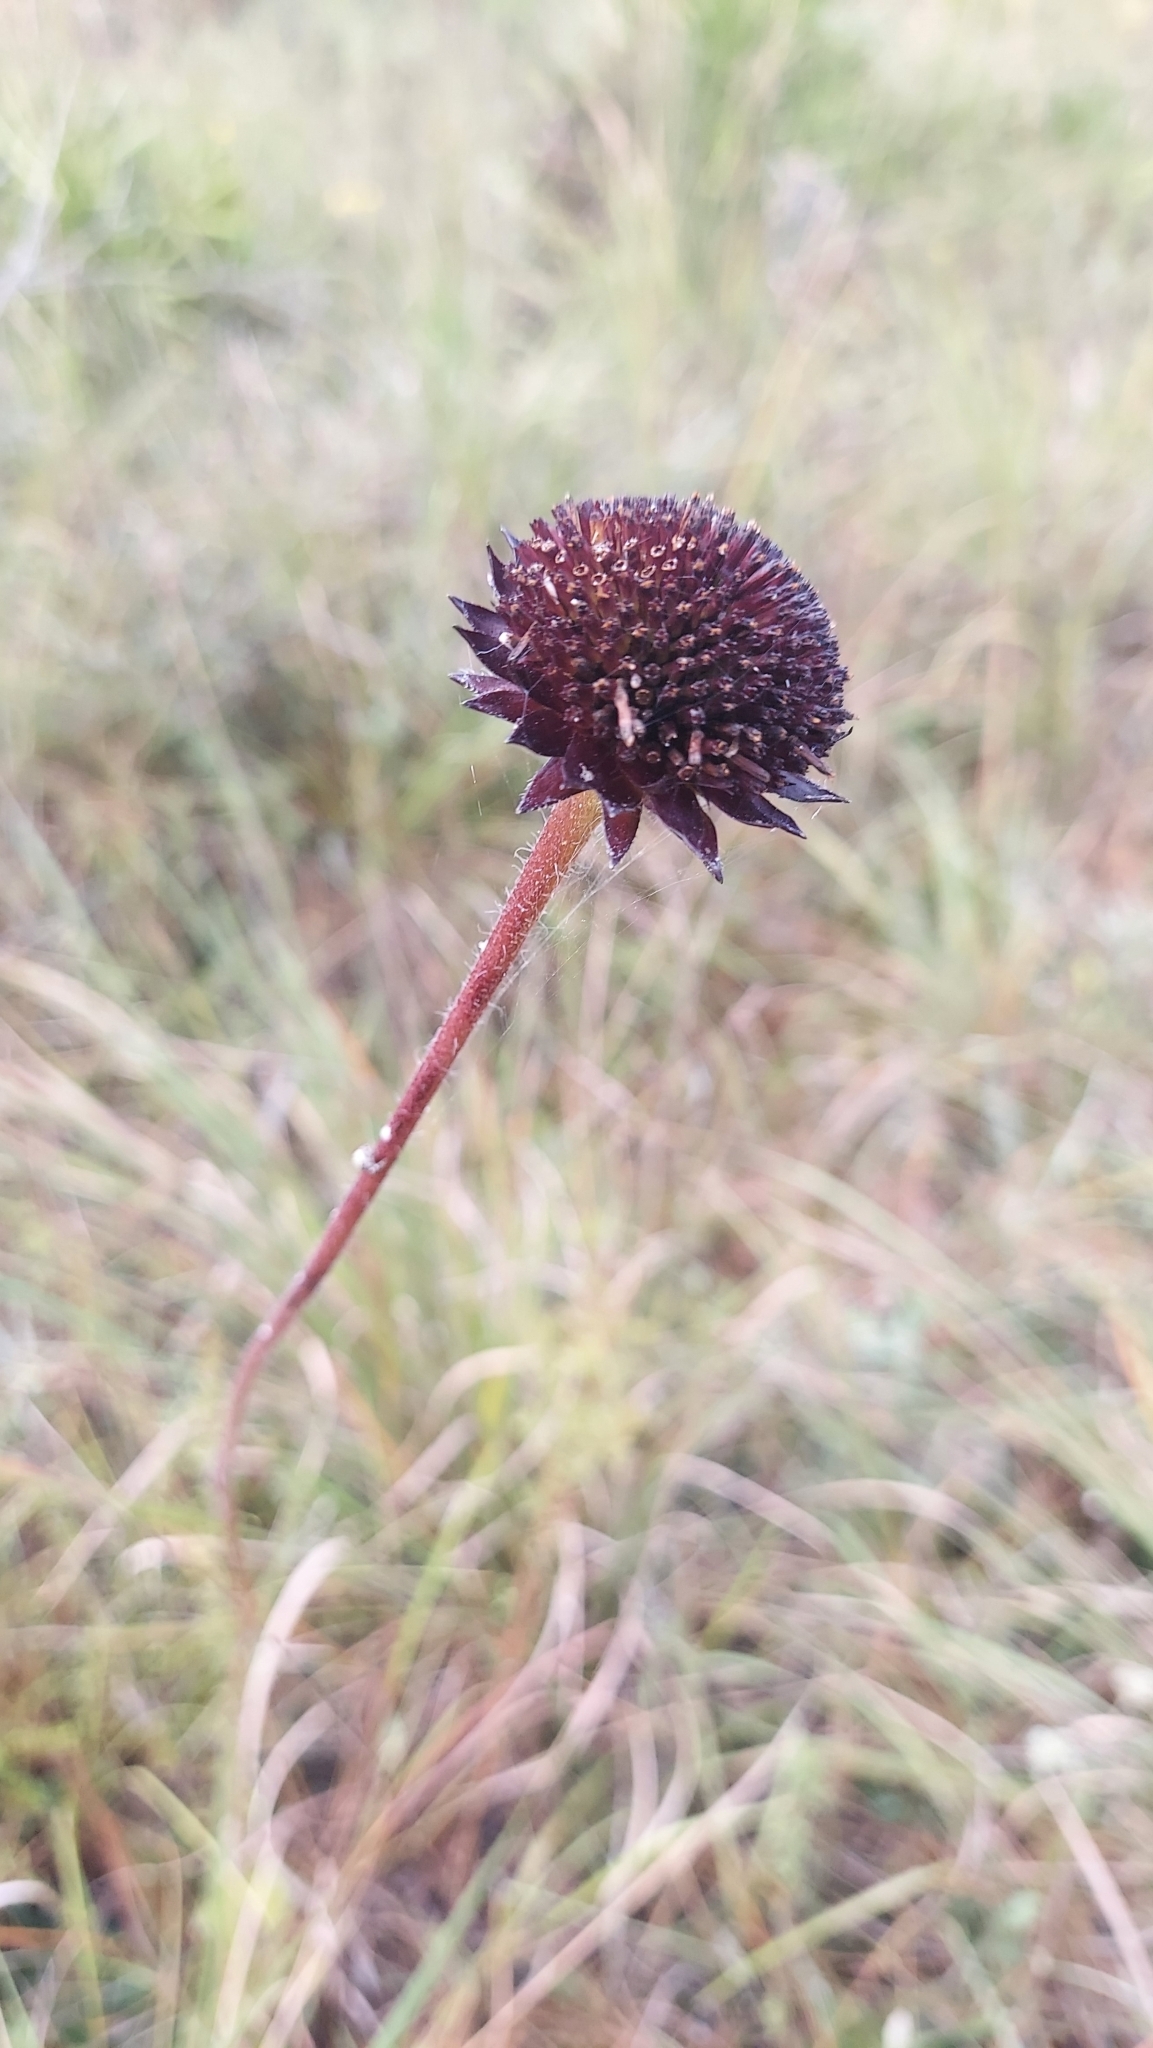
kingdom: Plantae
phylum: Tracheophyta
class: Magnoliopsida
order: Asterales
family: Asteraceae
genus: Helianthus
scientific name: Helianthus radula
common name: Pineland sunflower
